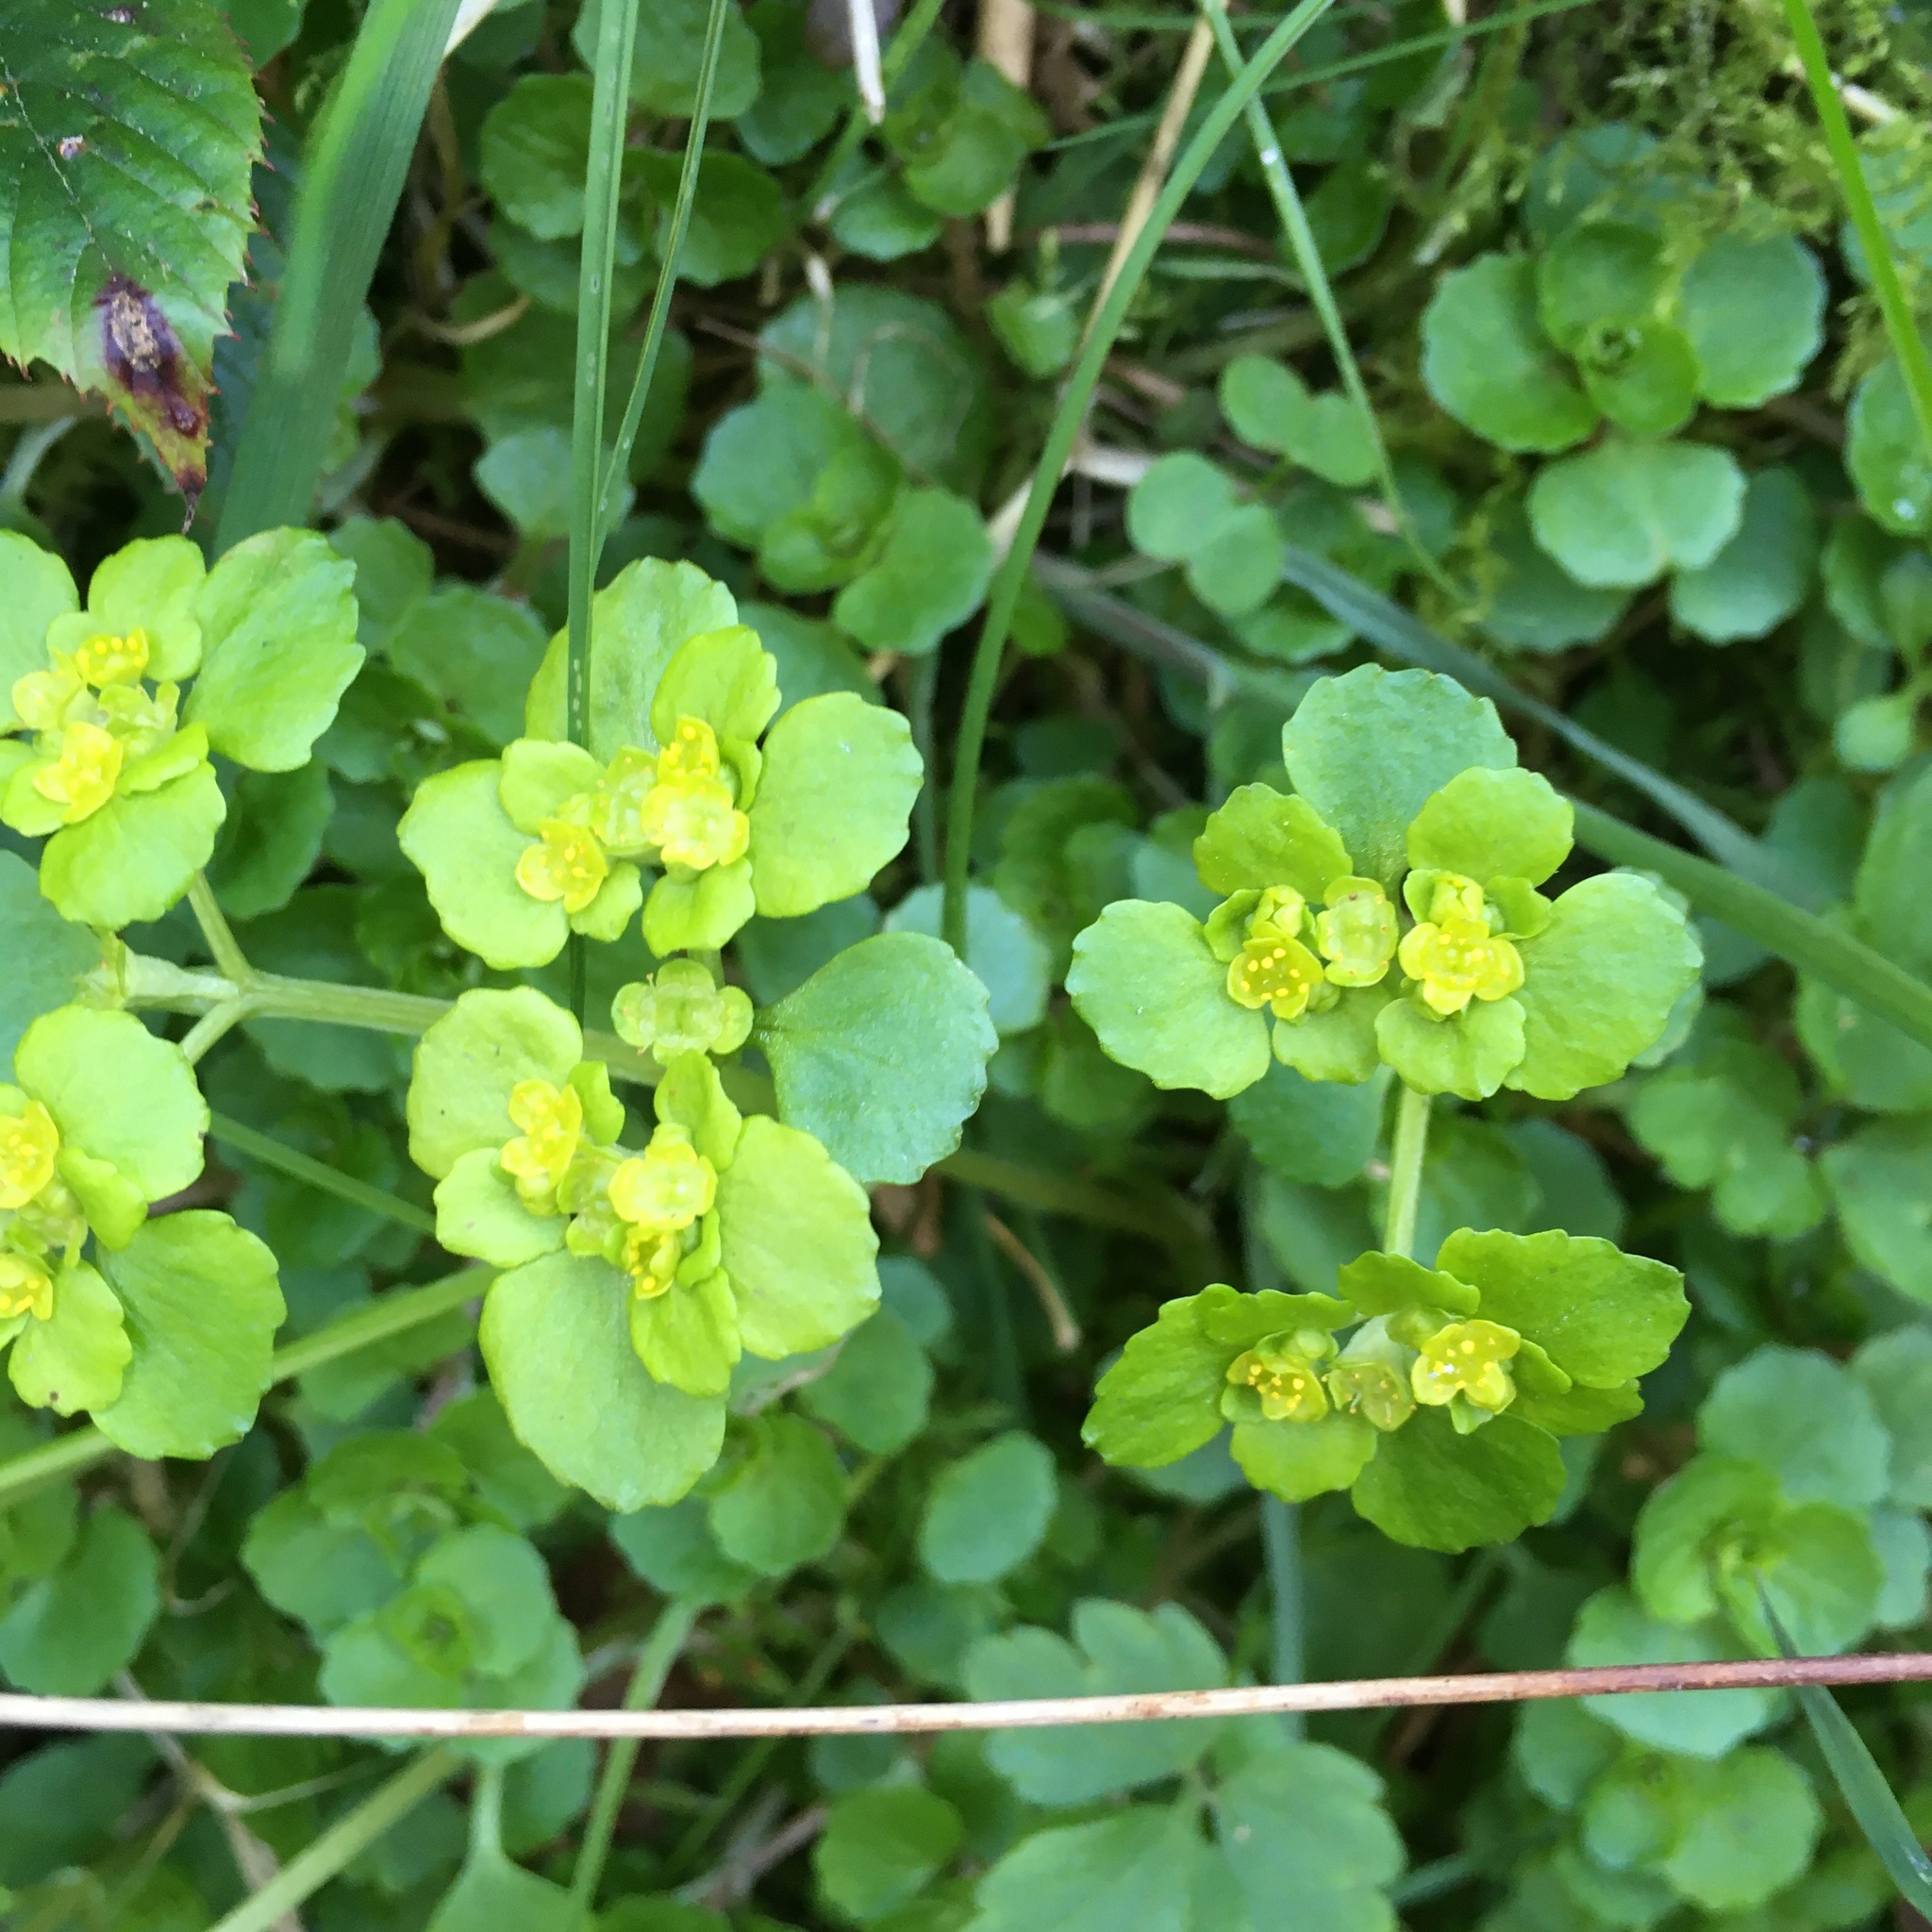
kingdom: Plantae
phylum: Tracheophyta
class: Magnoliopsida
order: Saxifragales
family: Saxifragaceae
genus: Chrysosplenium
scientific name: Chrysosplenium oppositifolium
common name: Opposite-leaved golden-saxifrage
